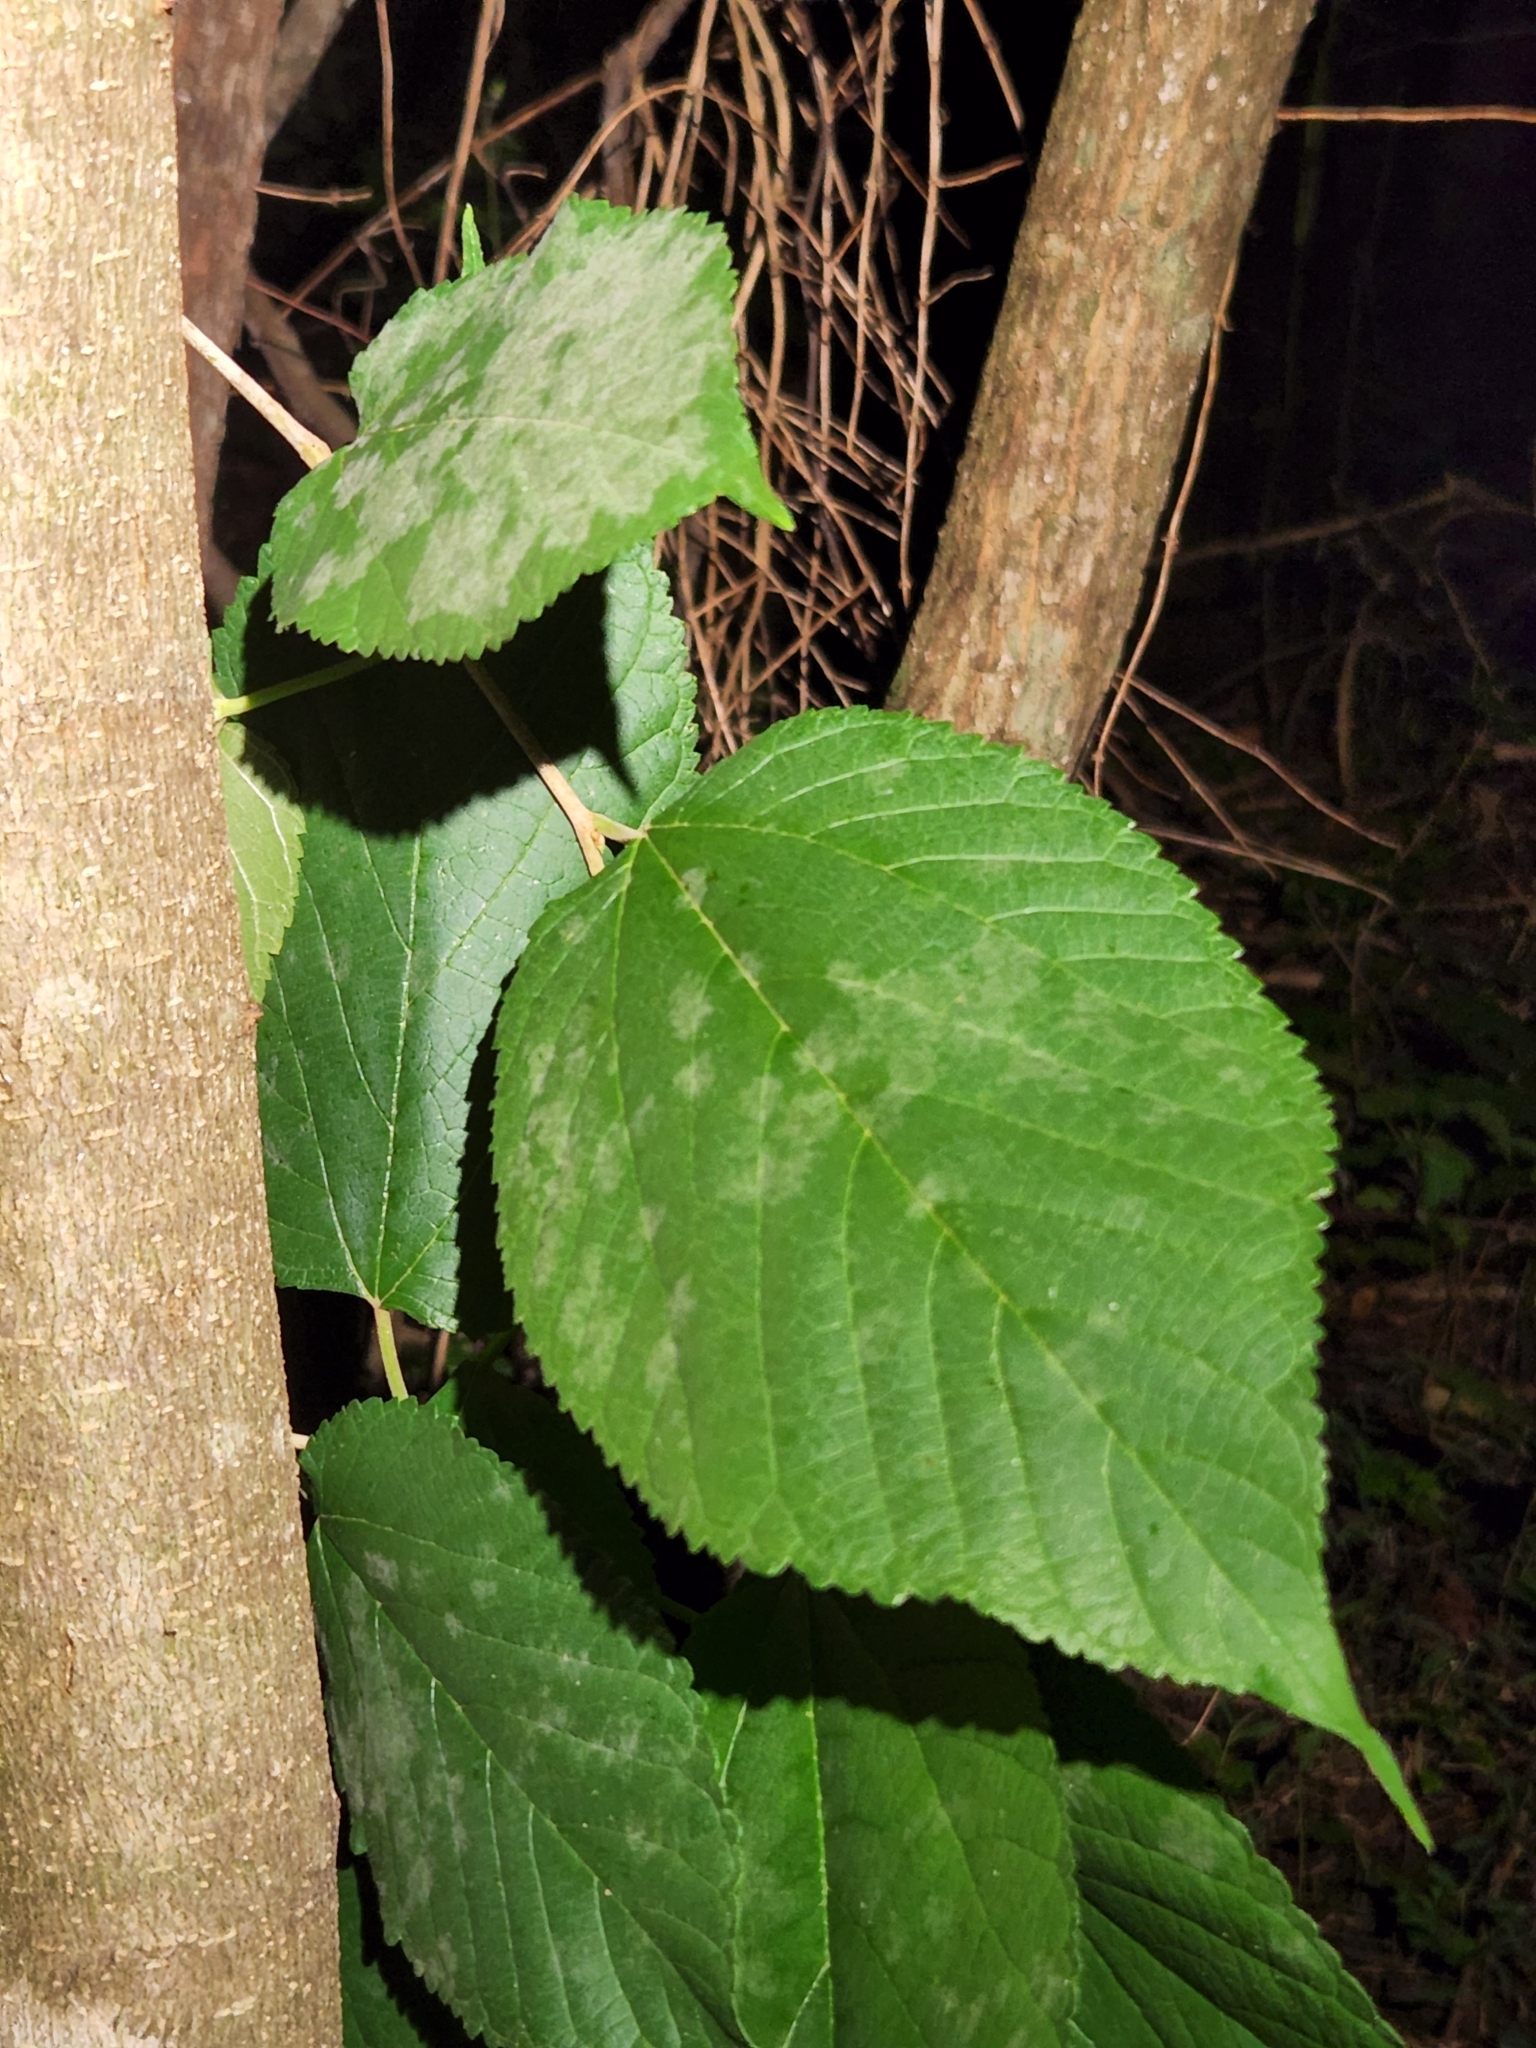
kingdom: Plantae
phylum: Tracheophyta
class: Magnoliopsida
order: Rosales
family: Moraceae
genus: Morus
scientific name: Morus rubra
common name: Red mulberry
